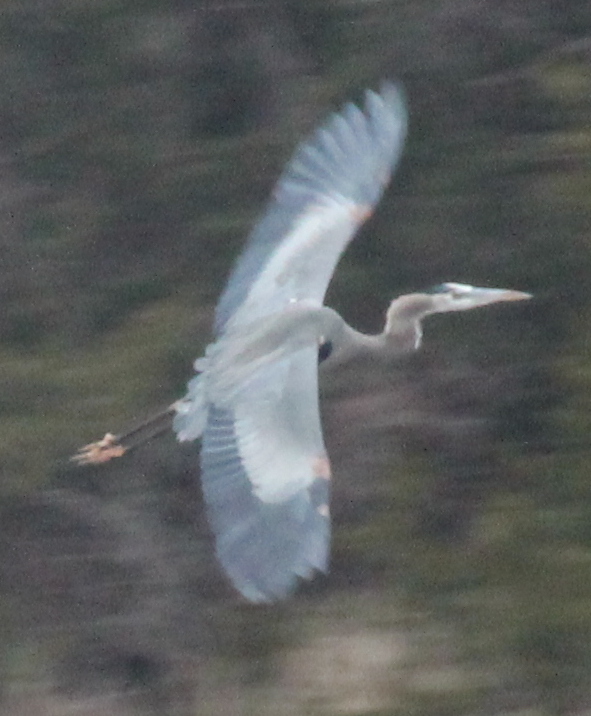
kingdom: Animalia
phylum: Chordata
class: Aves
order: Pelecaniformes
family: Ardeidae
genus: Ardea
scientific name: Ardea herodias
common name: Great blue heron
